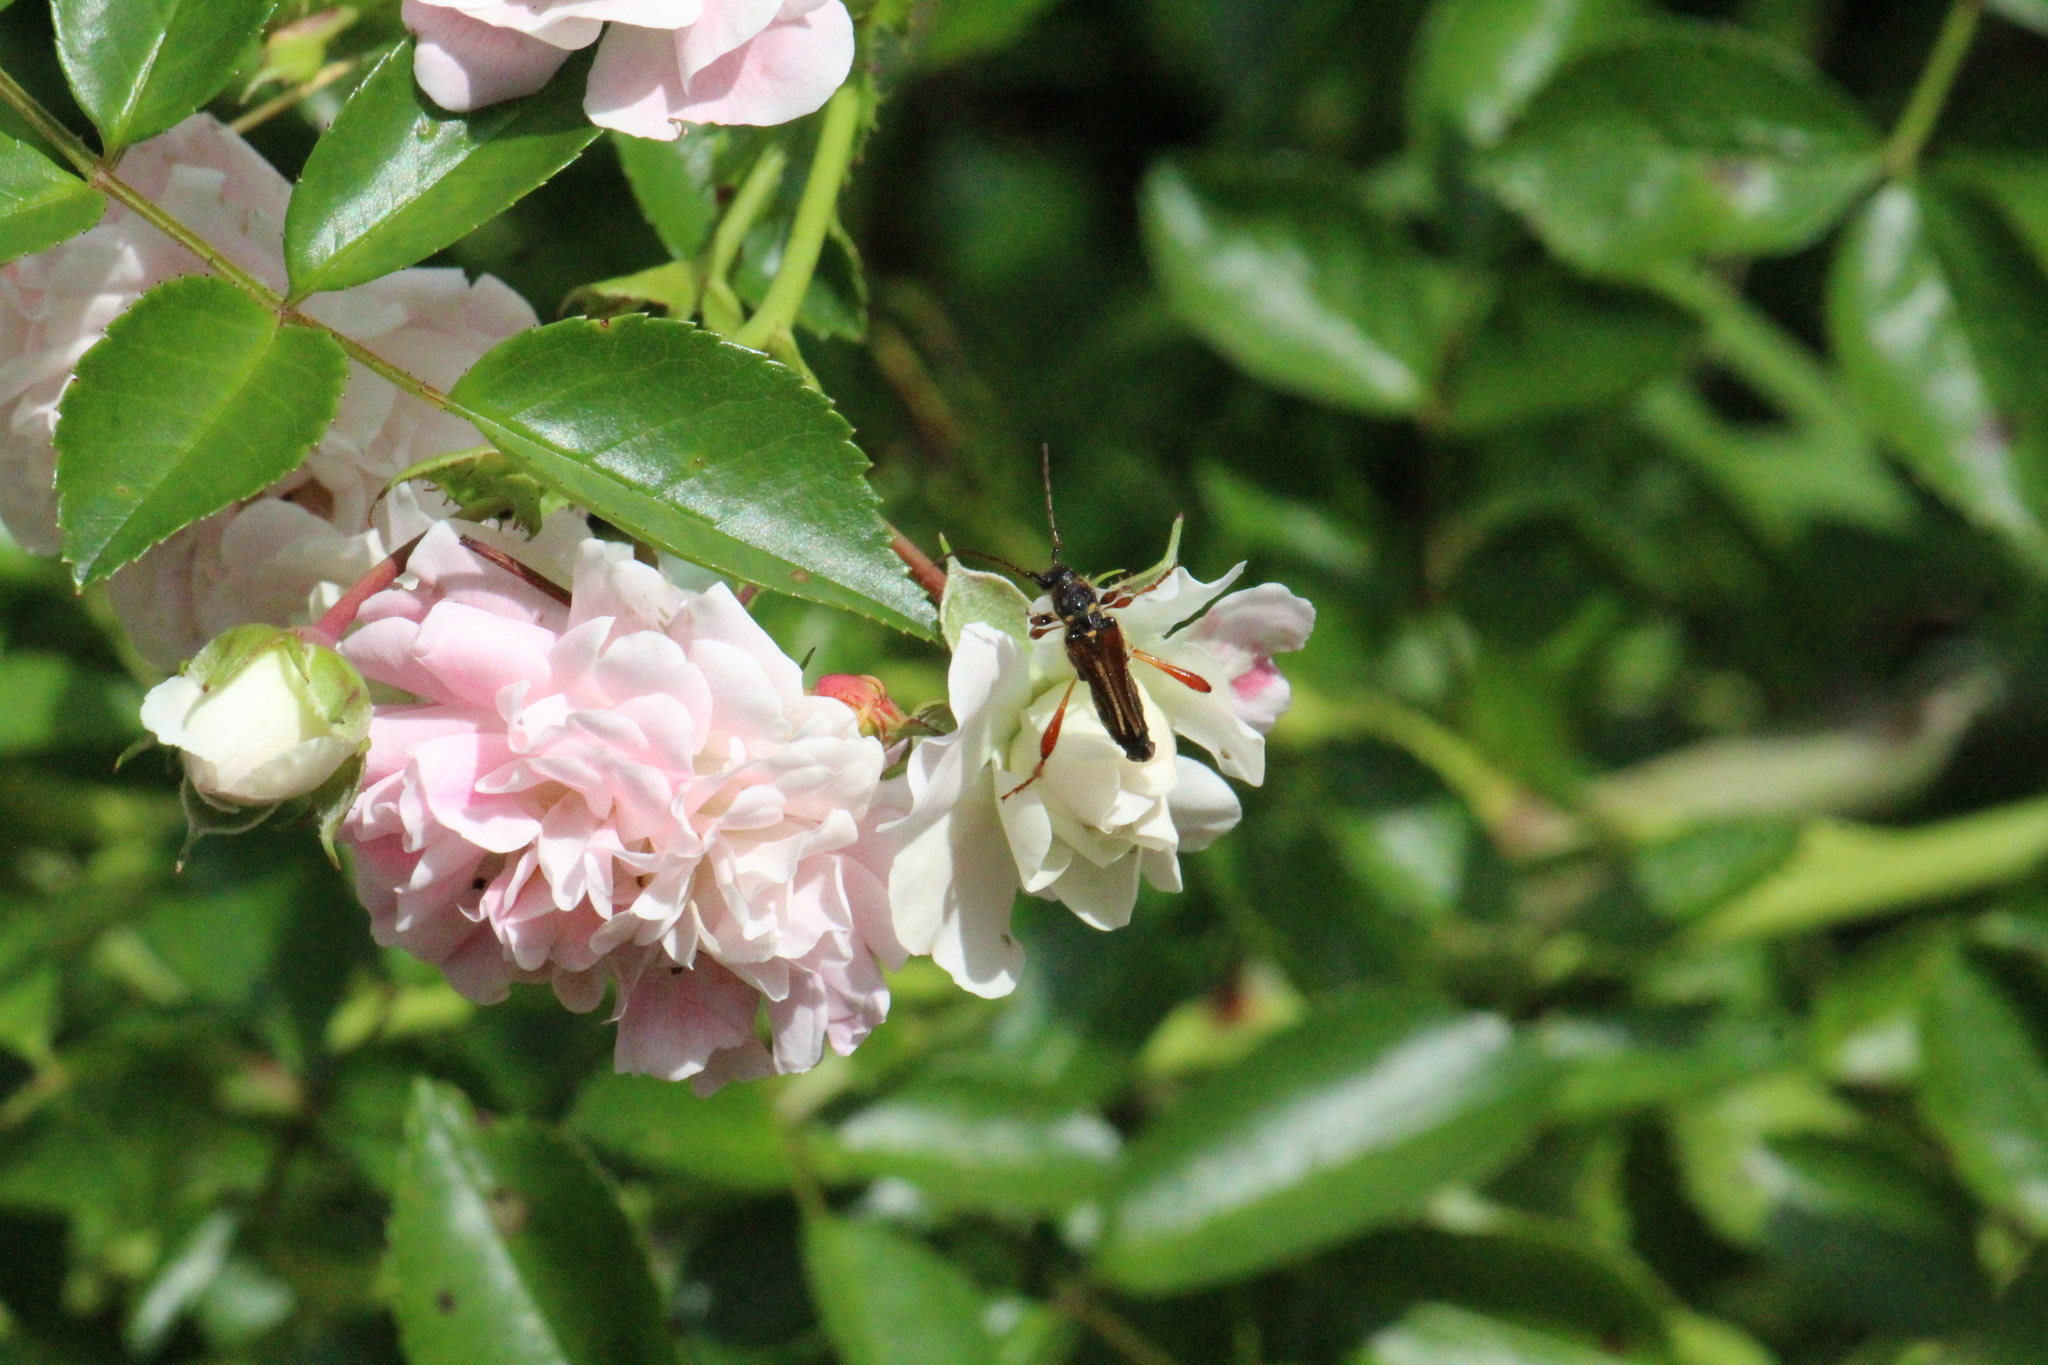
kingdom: Animalia
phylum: Arthropoda
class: Insecta
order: Coleoptera
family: Cerambycidae
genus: Stenopterus
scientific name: Stenopterus rufus
